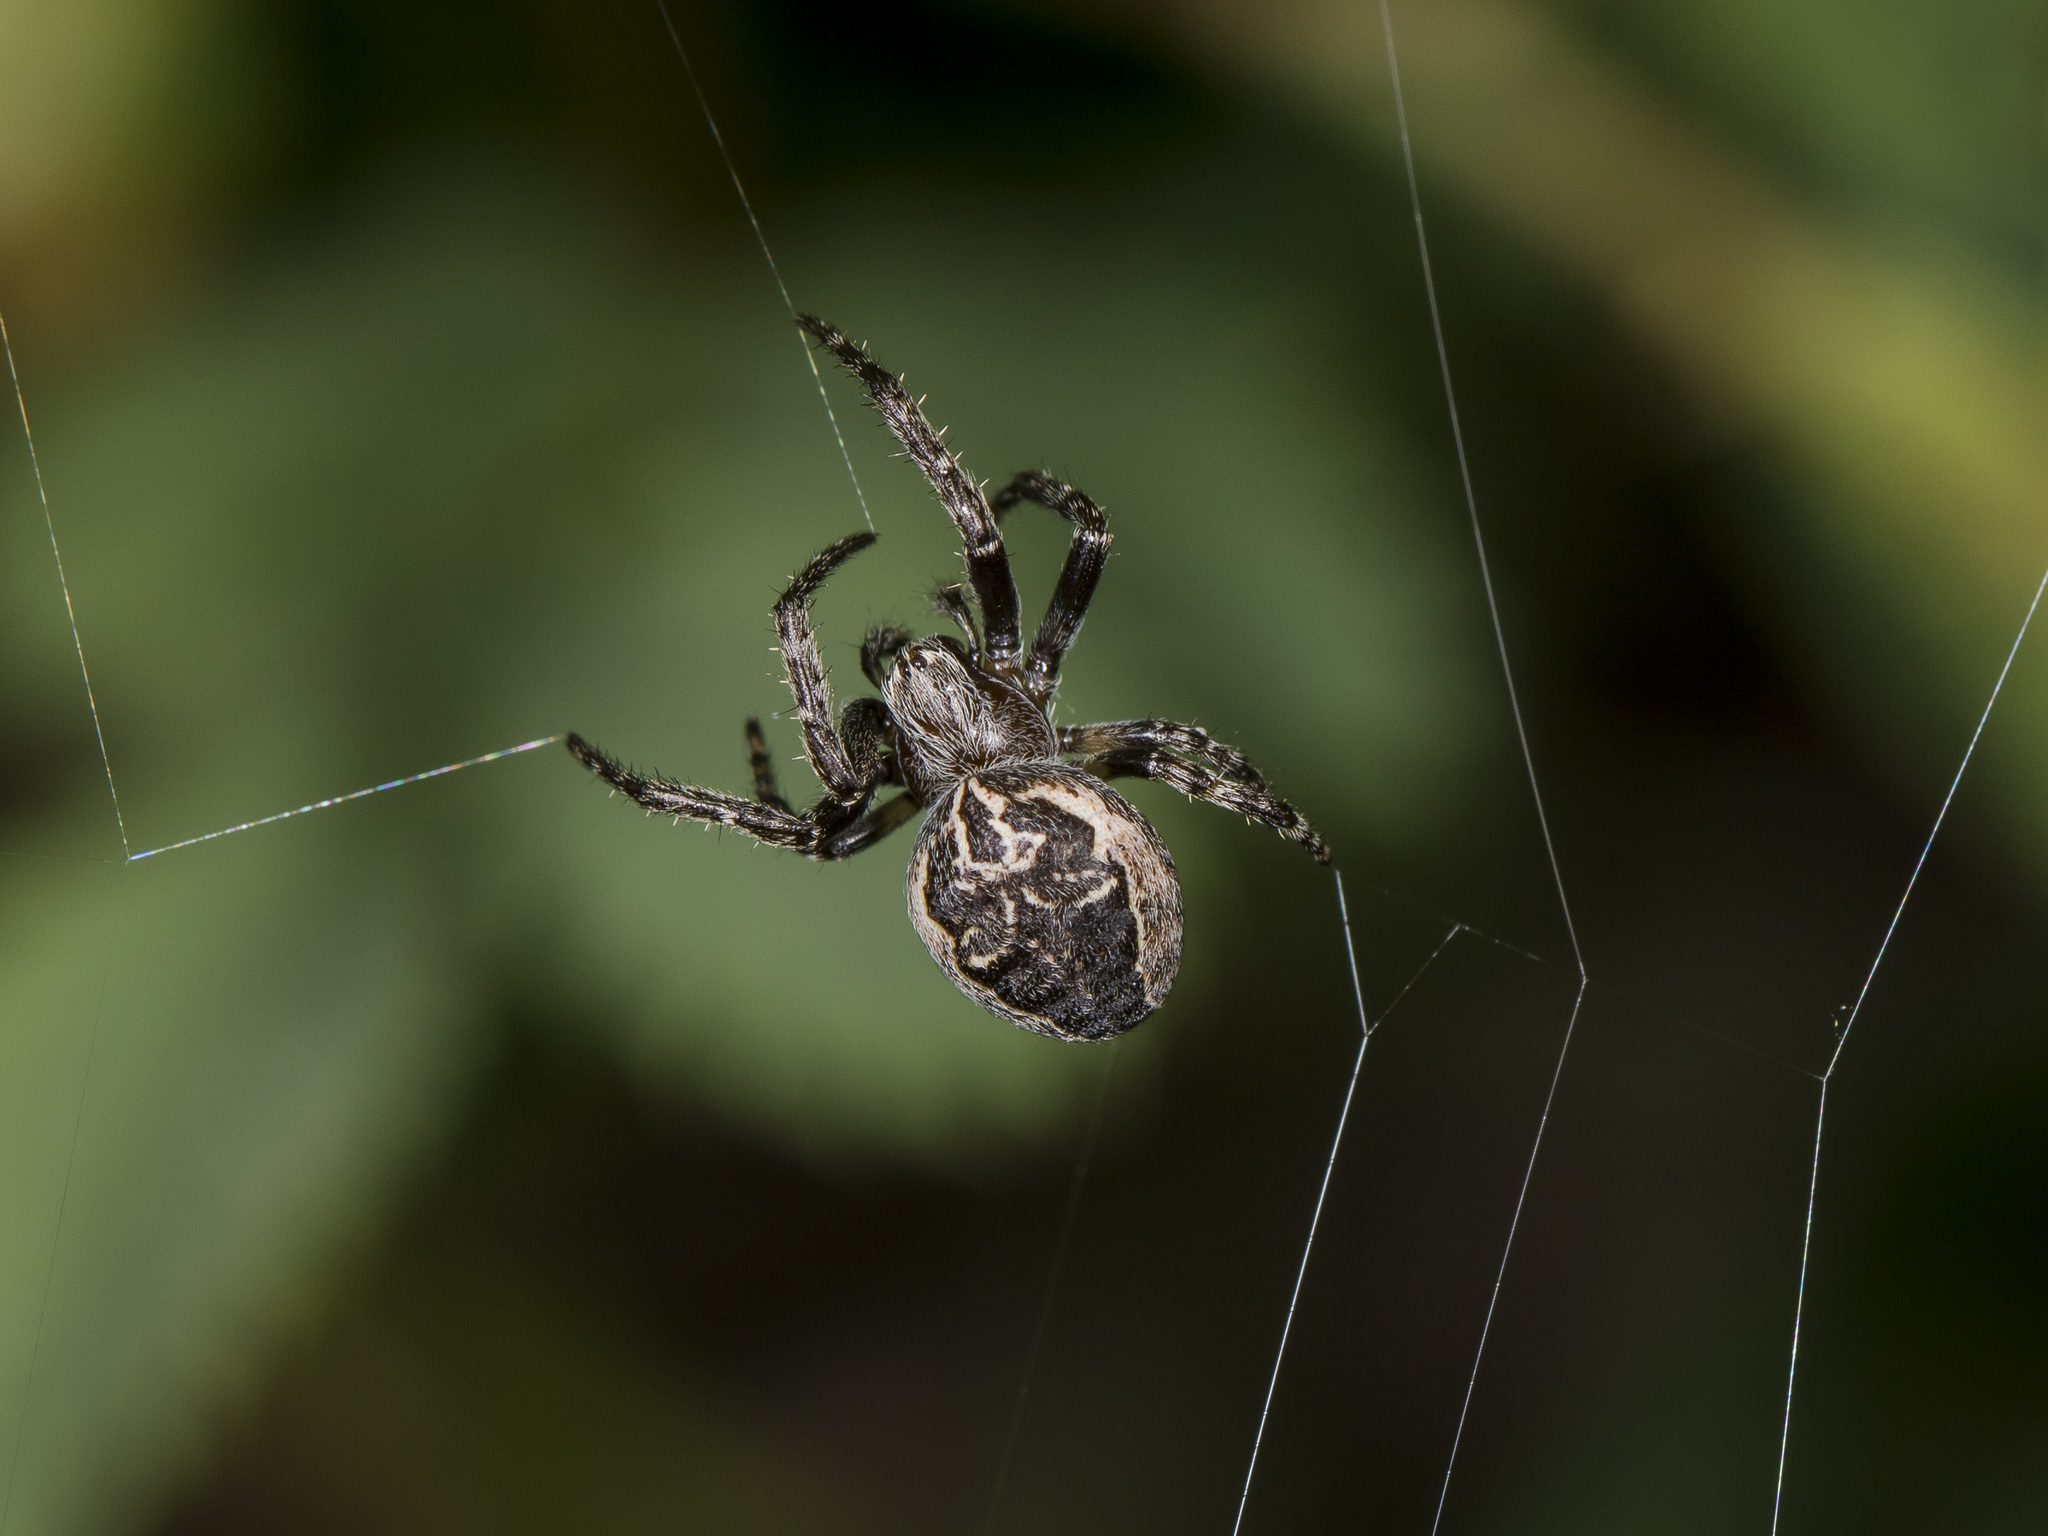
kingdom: Animalia
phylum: Arthropoda
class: Arachnida
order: Araneae
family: Araneidae
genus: Larinioides
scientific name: Larinioides patagiatus
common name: Ornamental orbweaver
